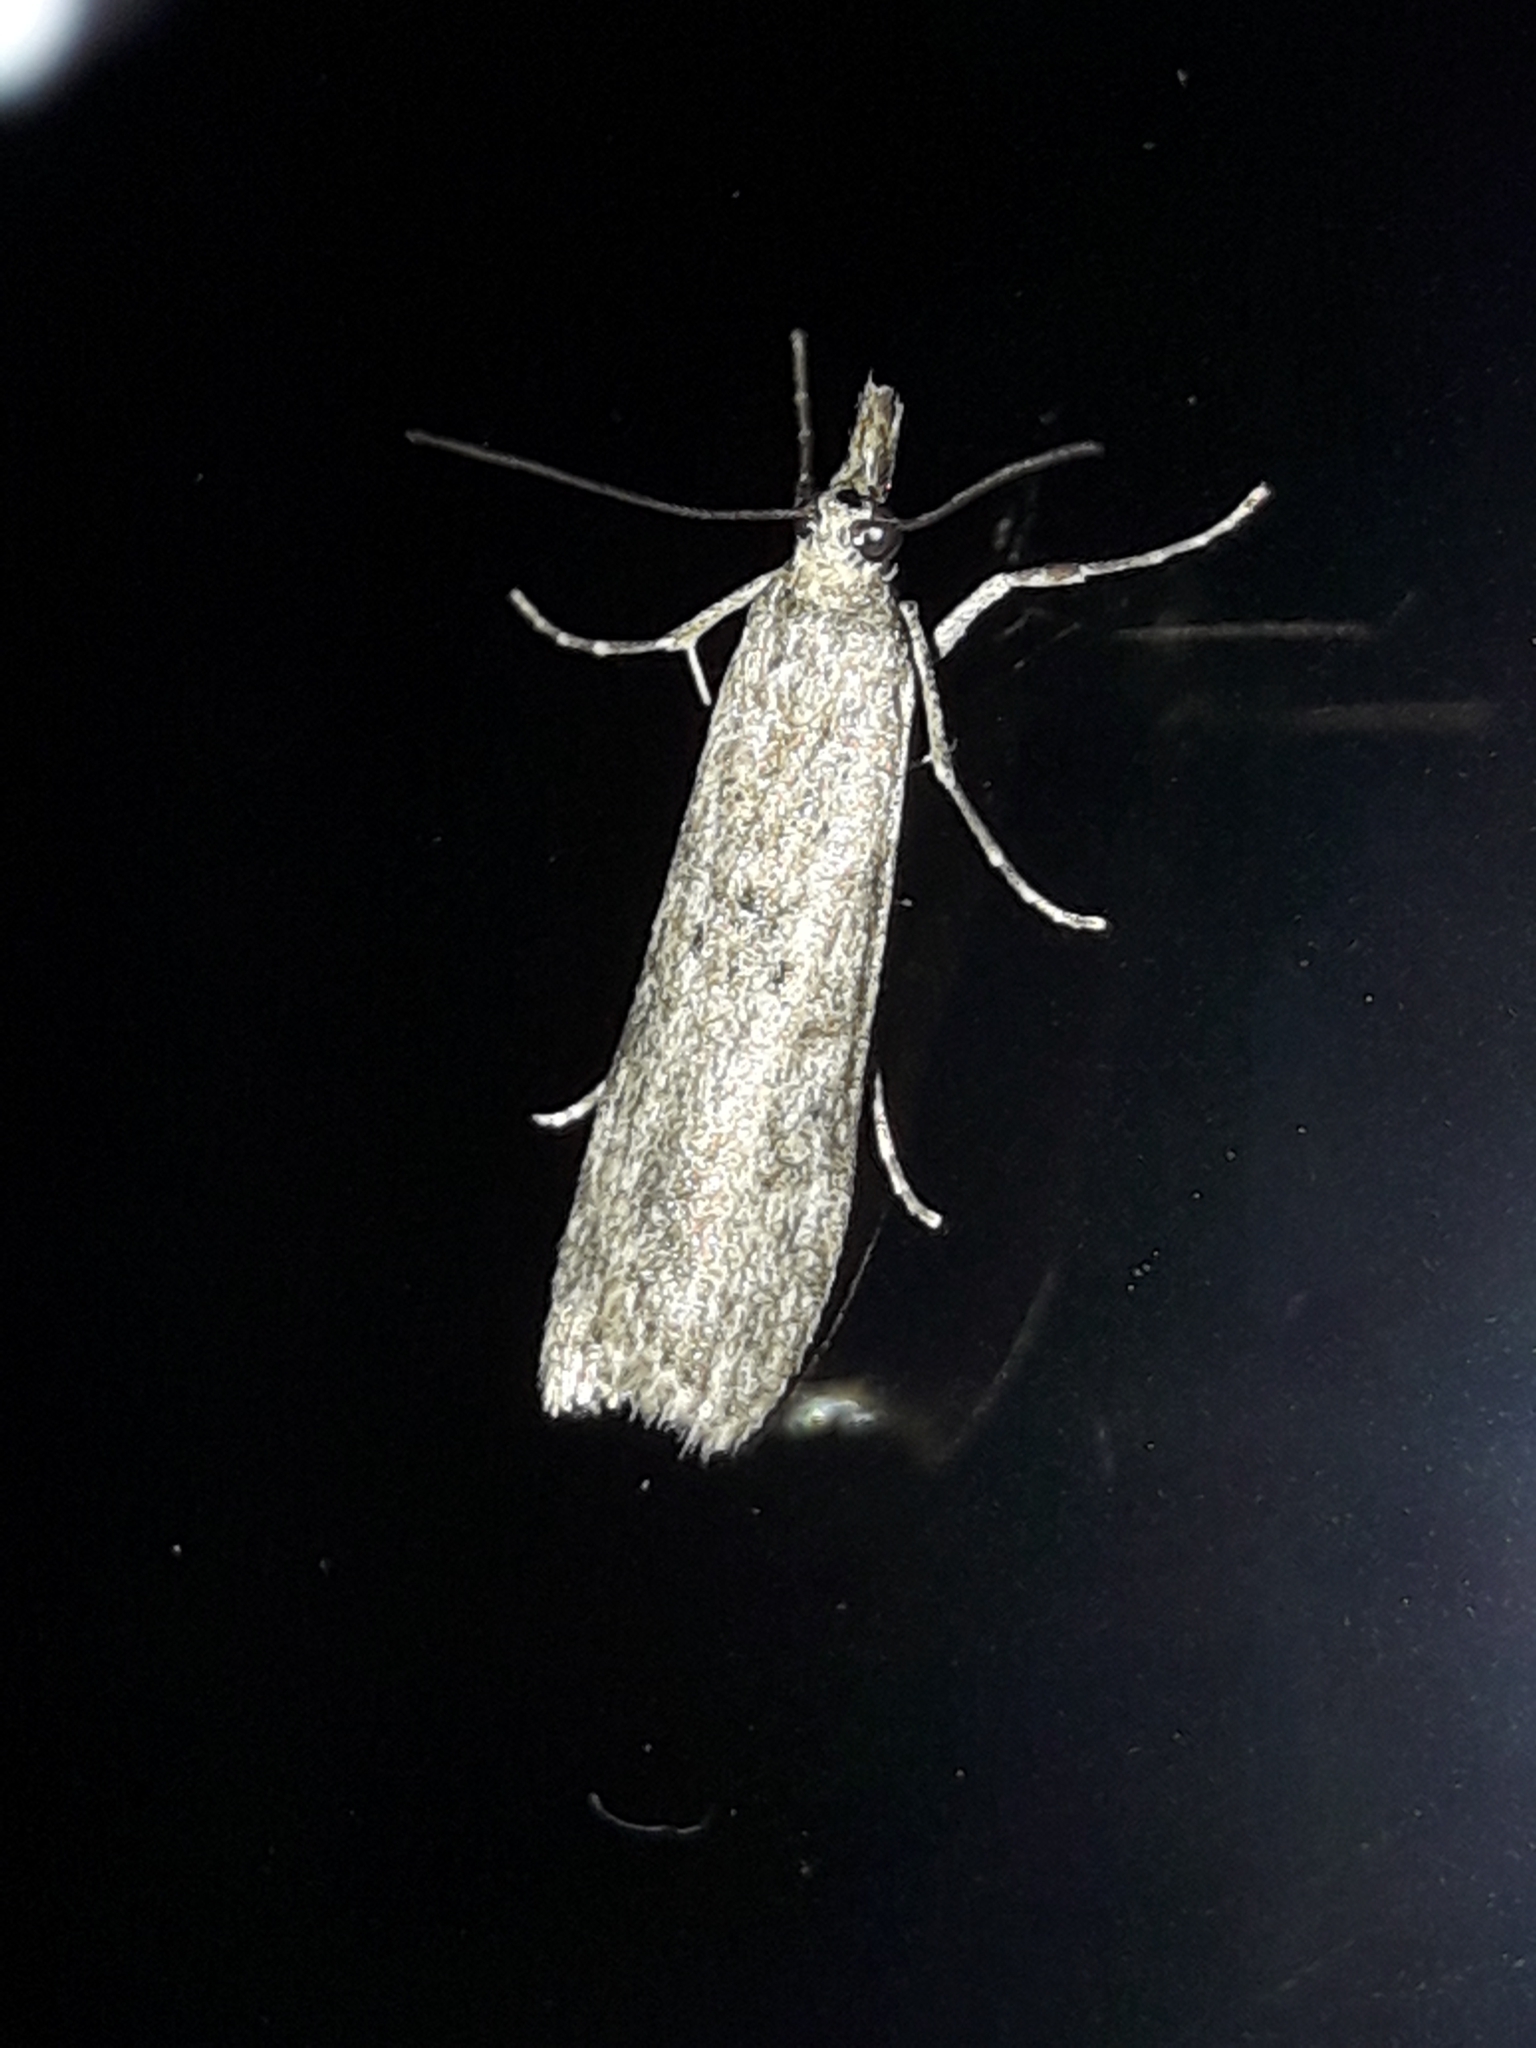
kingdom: Animalia
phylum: Arthropoda
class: Insecta
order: Lepidoptera
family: Crambidae
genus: Eudonia
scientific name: Eudonia leptalea
